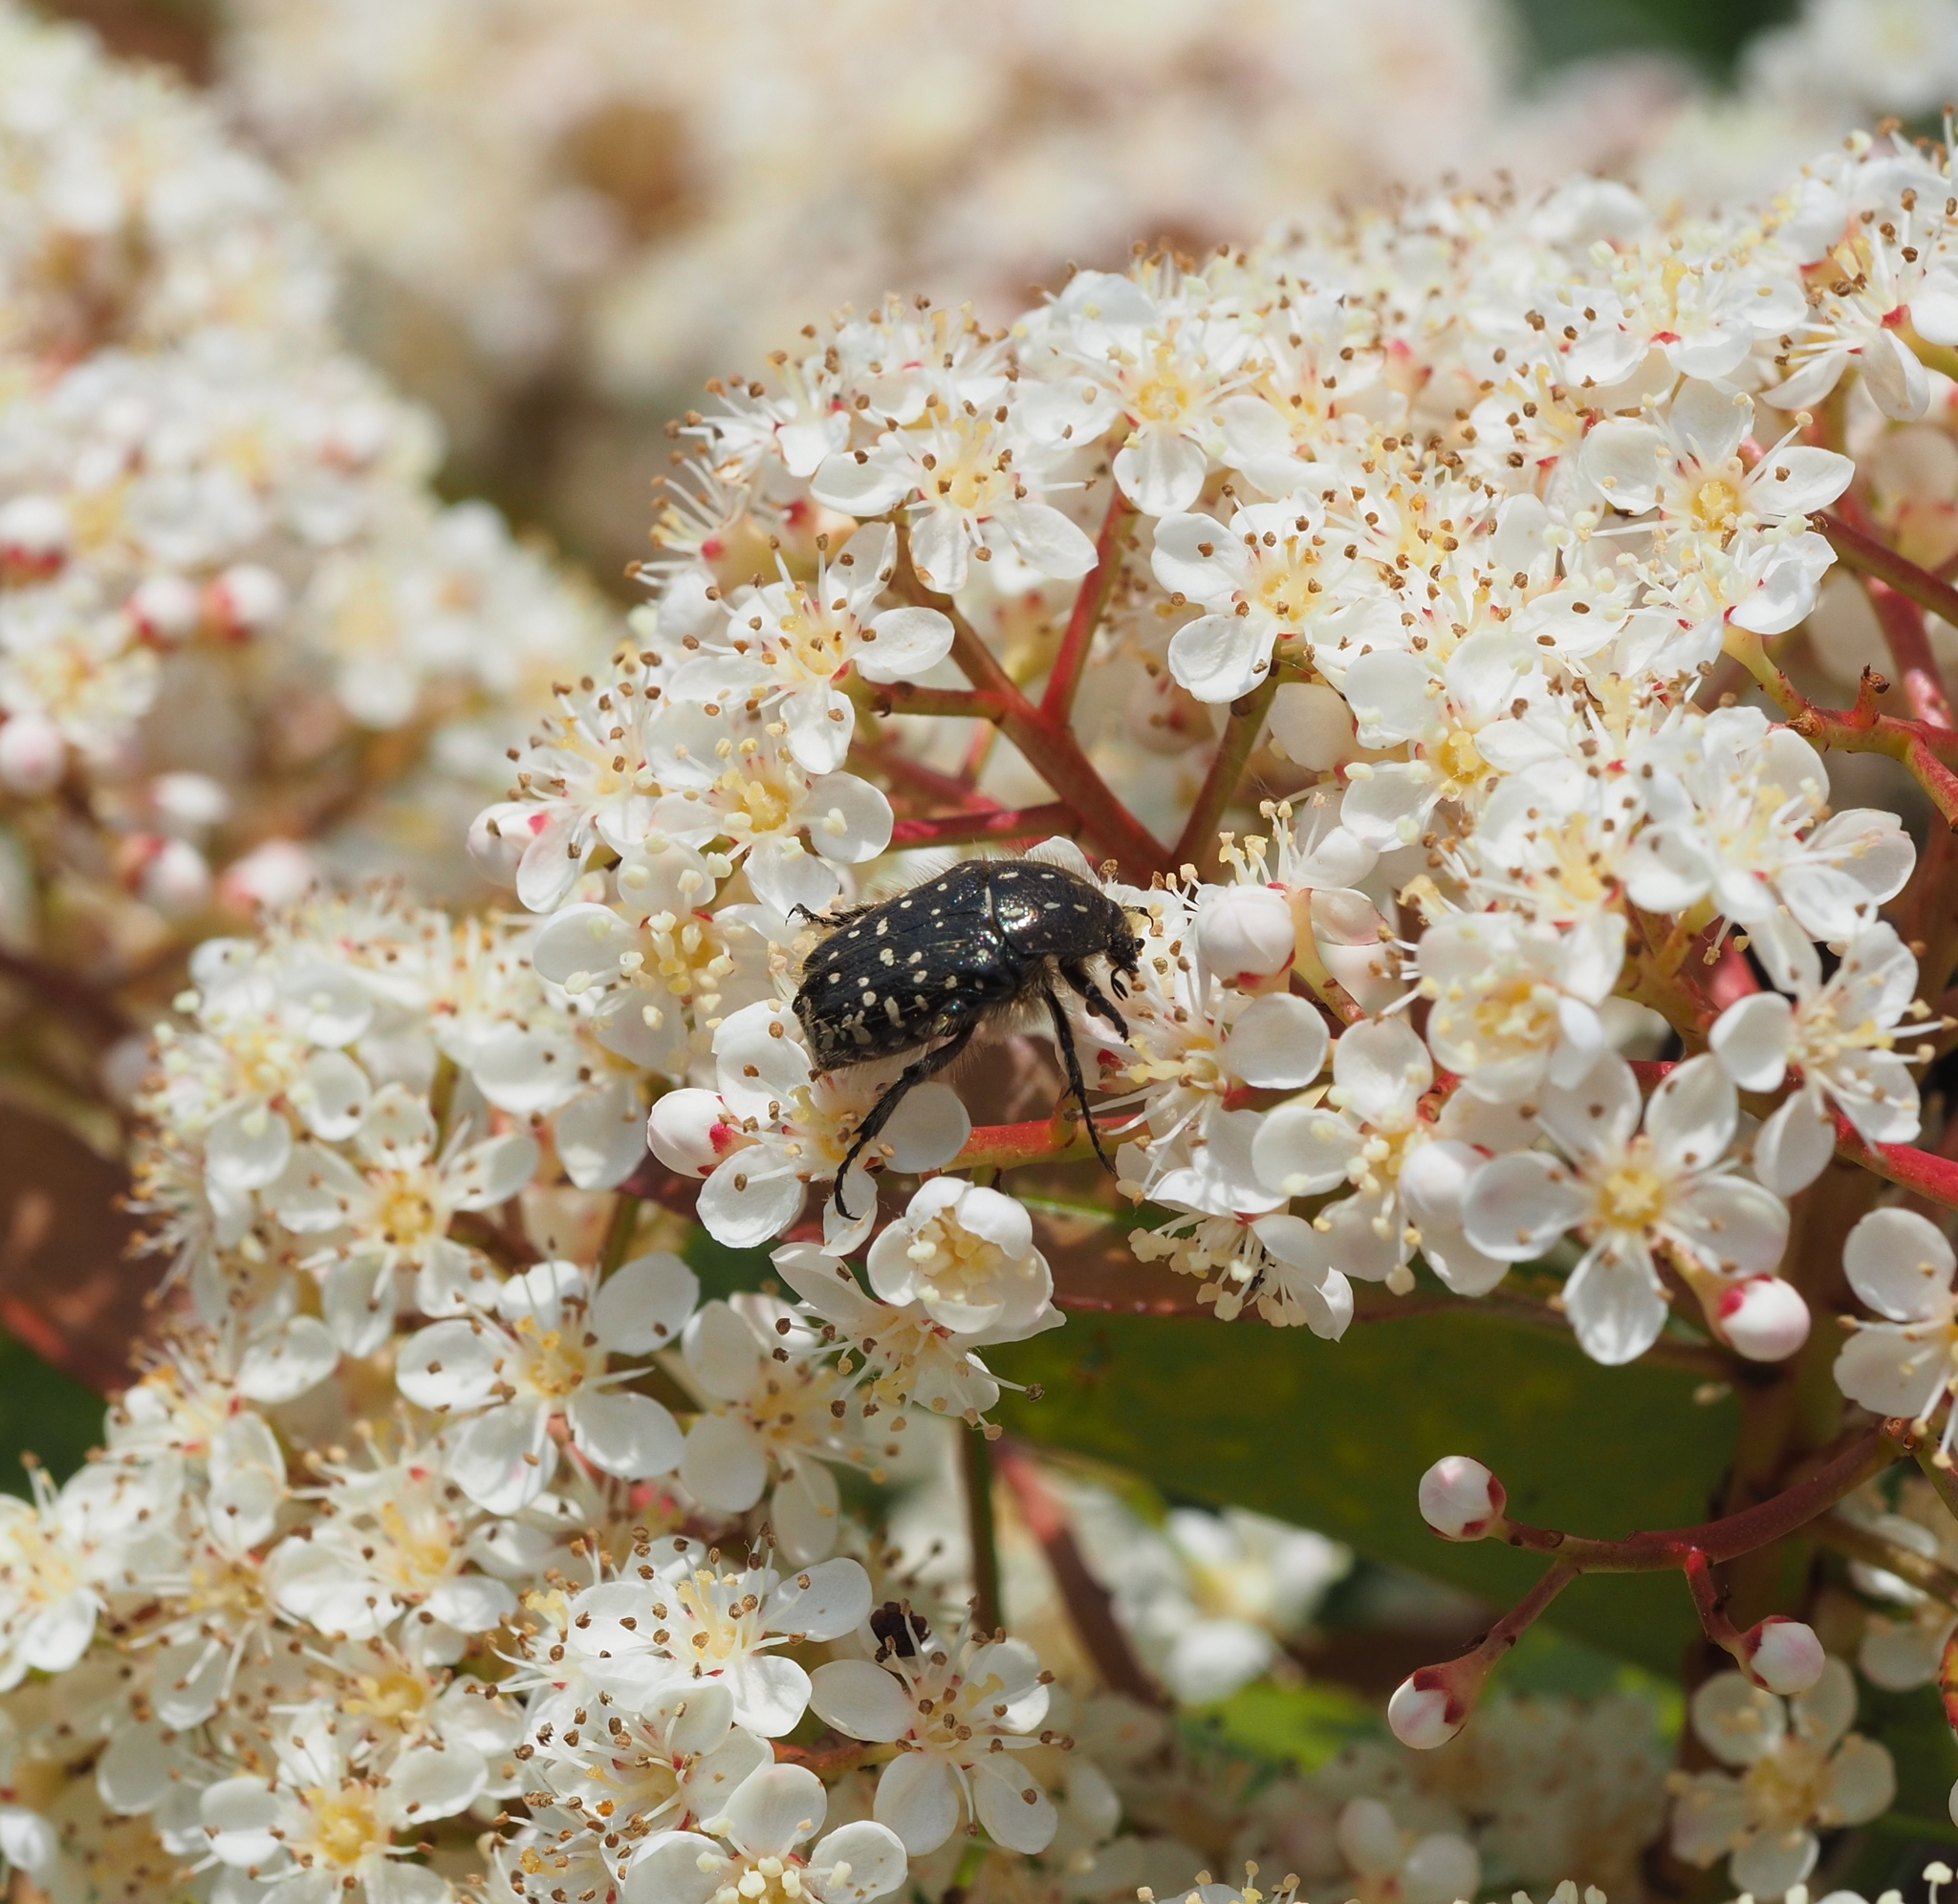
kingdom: Animalia
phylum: Arthropoda
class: Insecta
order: Coleoptera
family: Scarabaeidae
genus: Oxythyrea
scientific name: Oxythyrea funesta
